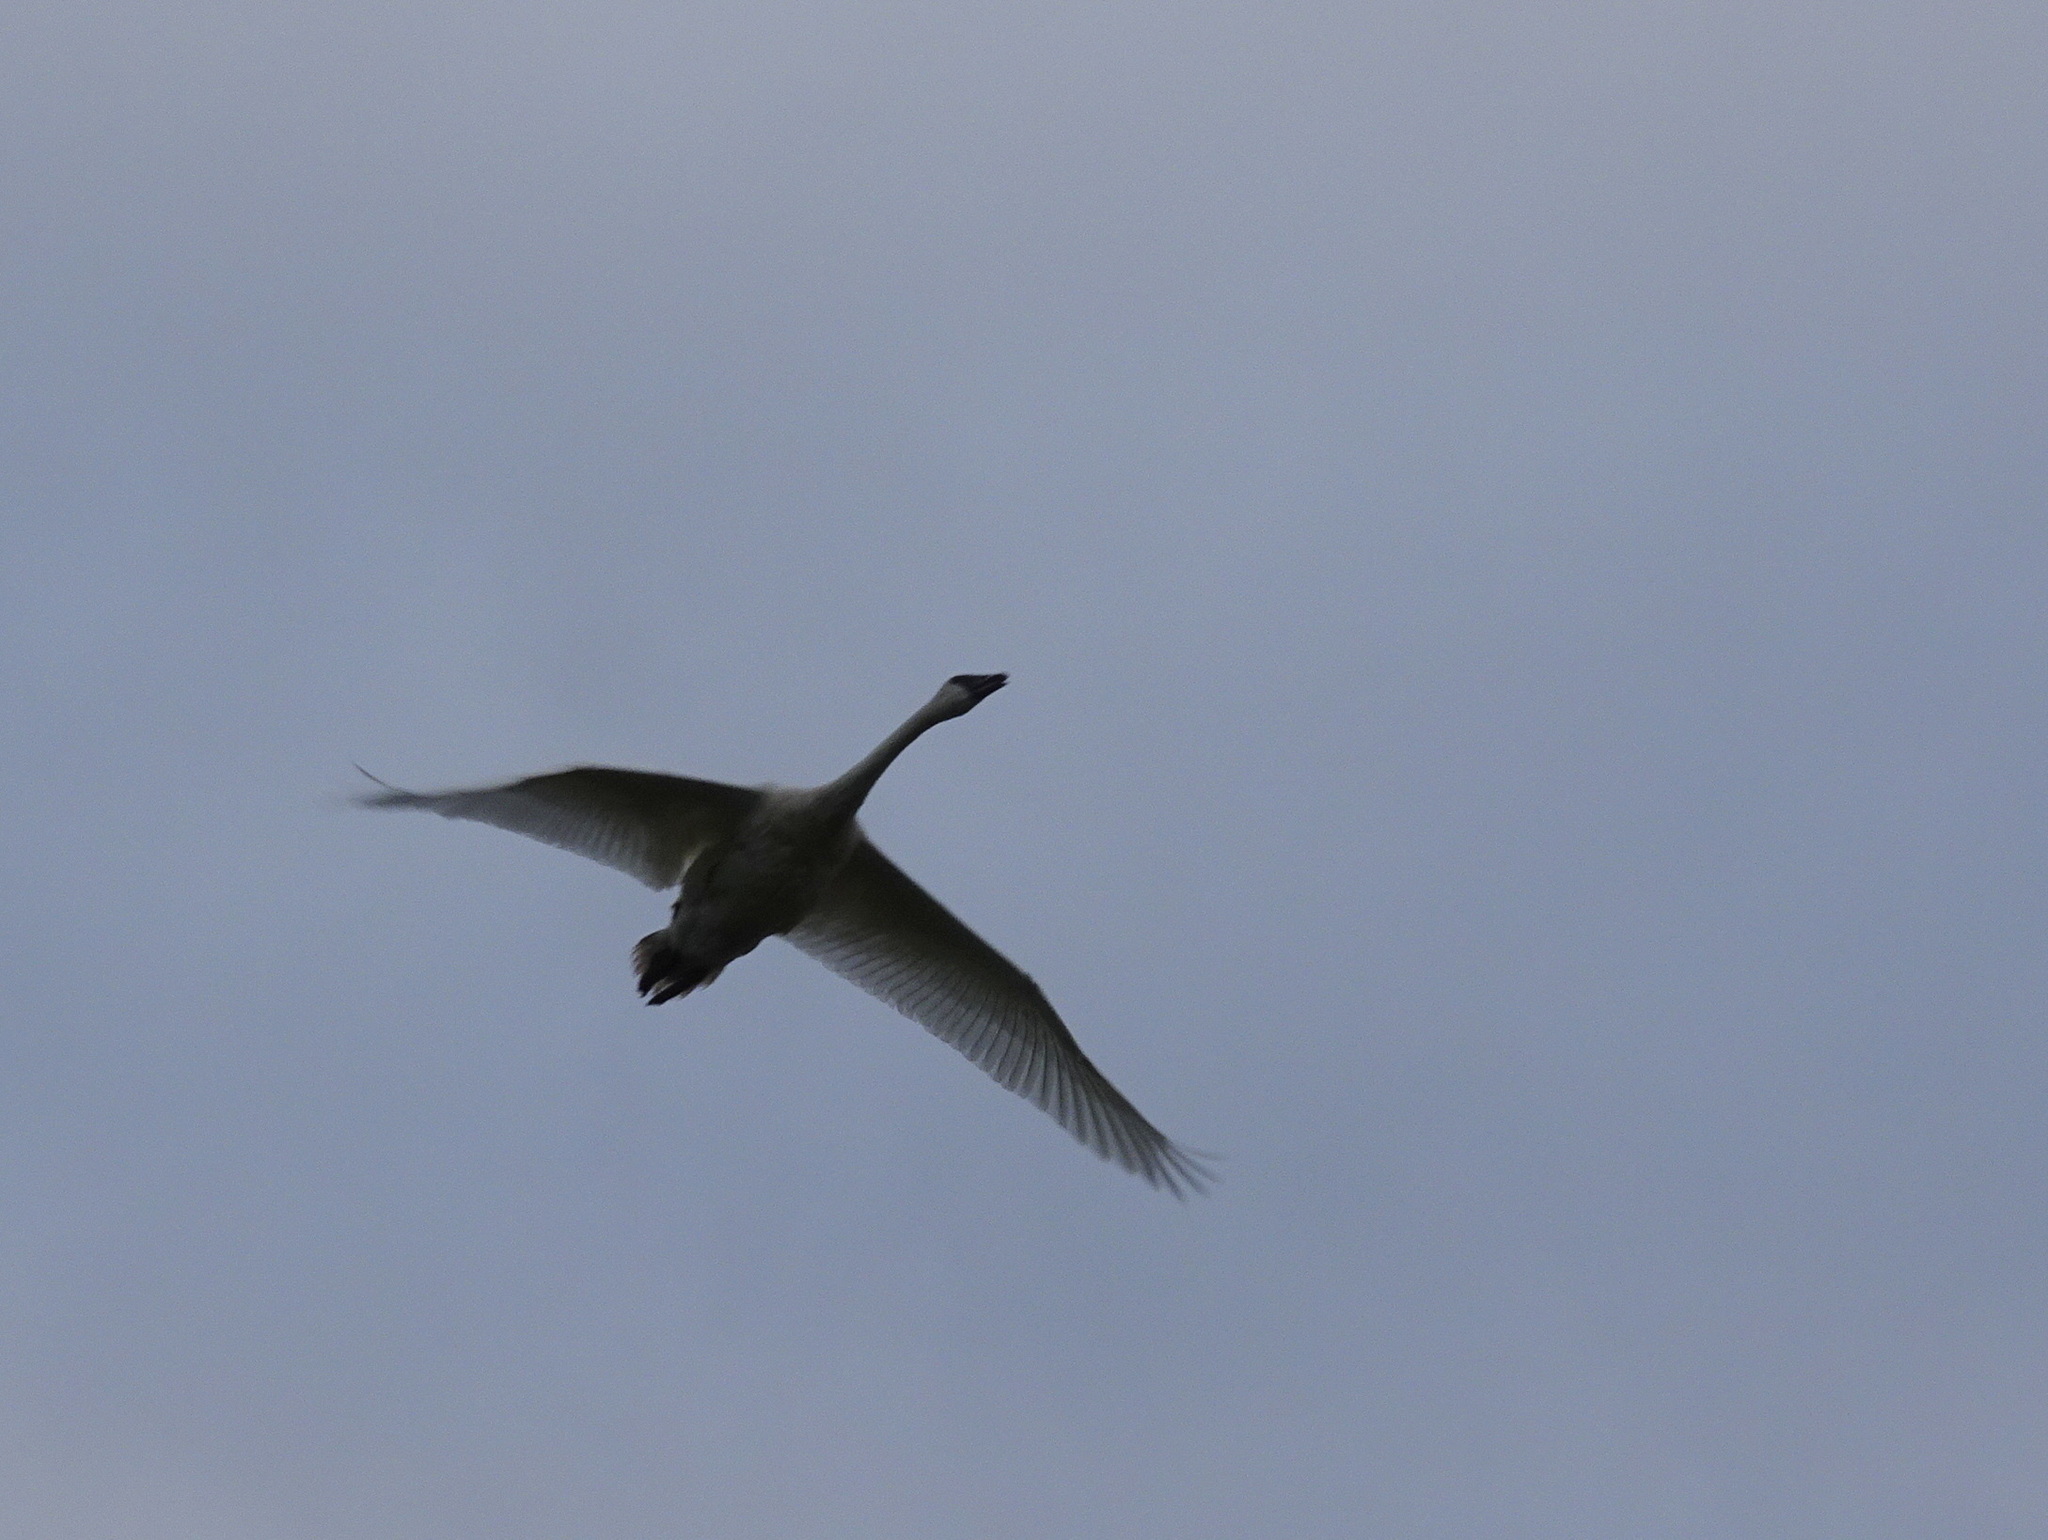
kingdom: Animalia
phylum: Chordata
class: Aves
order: Anseriformes
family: Anatidae
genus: Cygnus
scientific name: Cygnus buccinator
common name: Trumpeter swan
